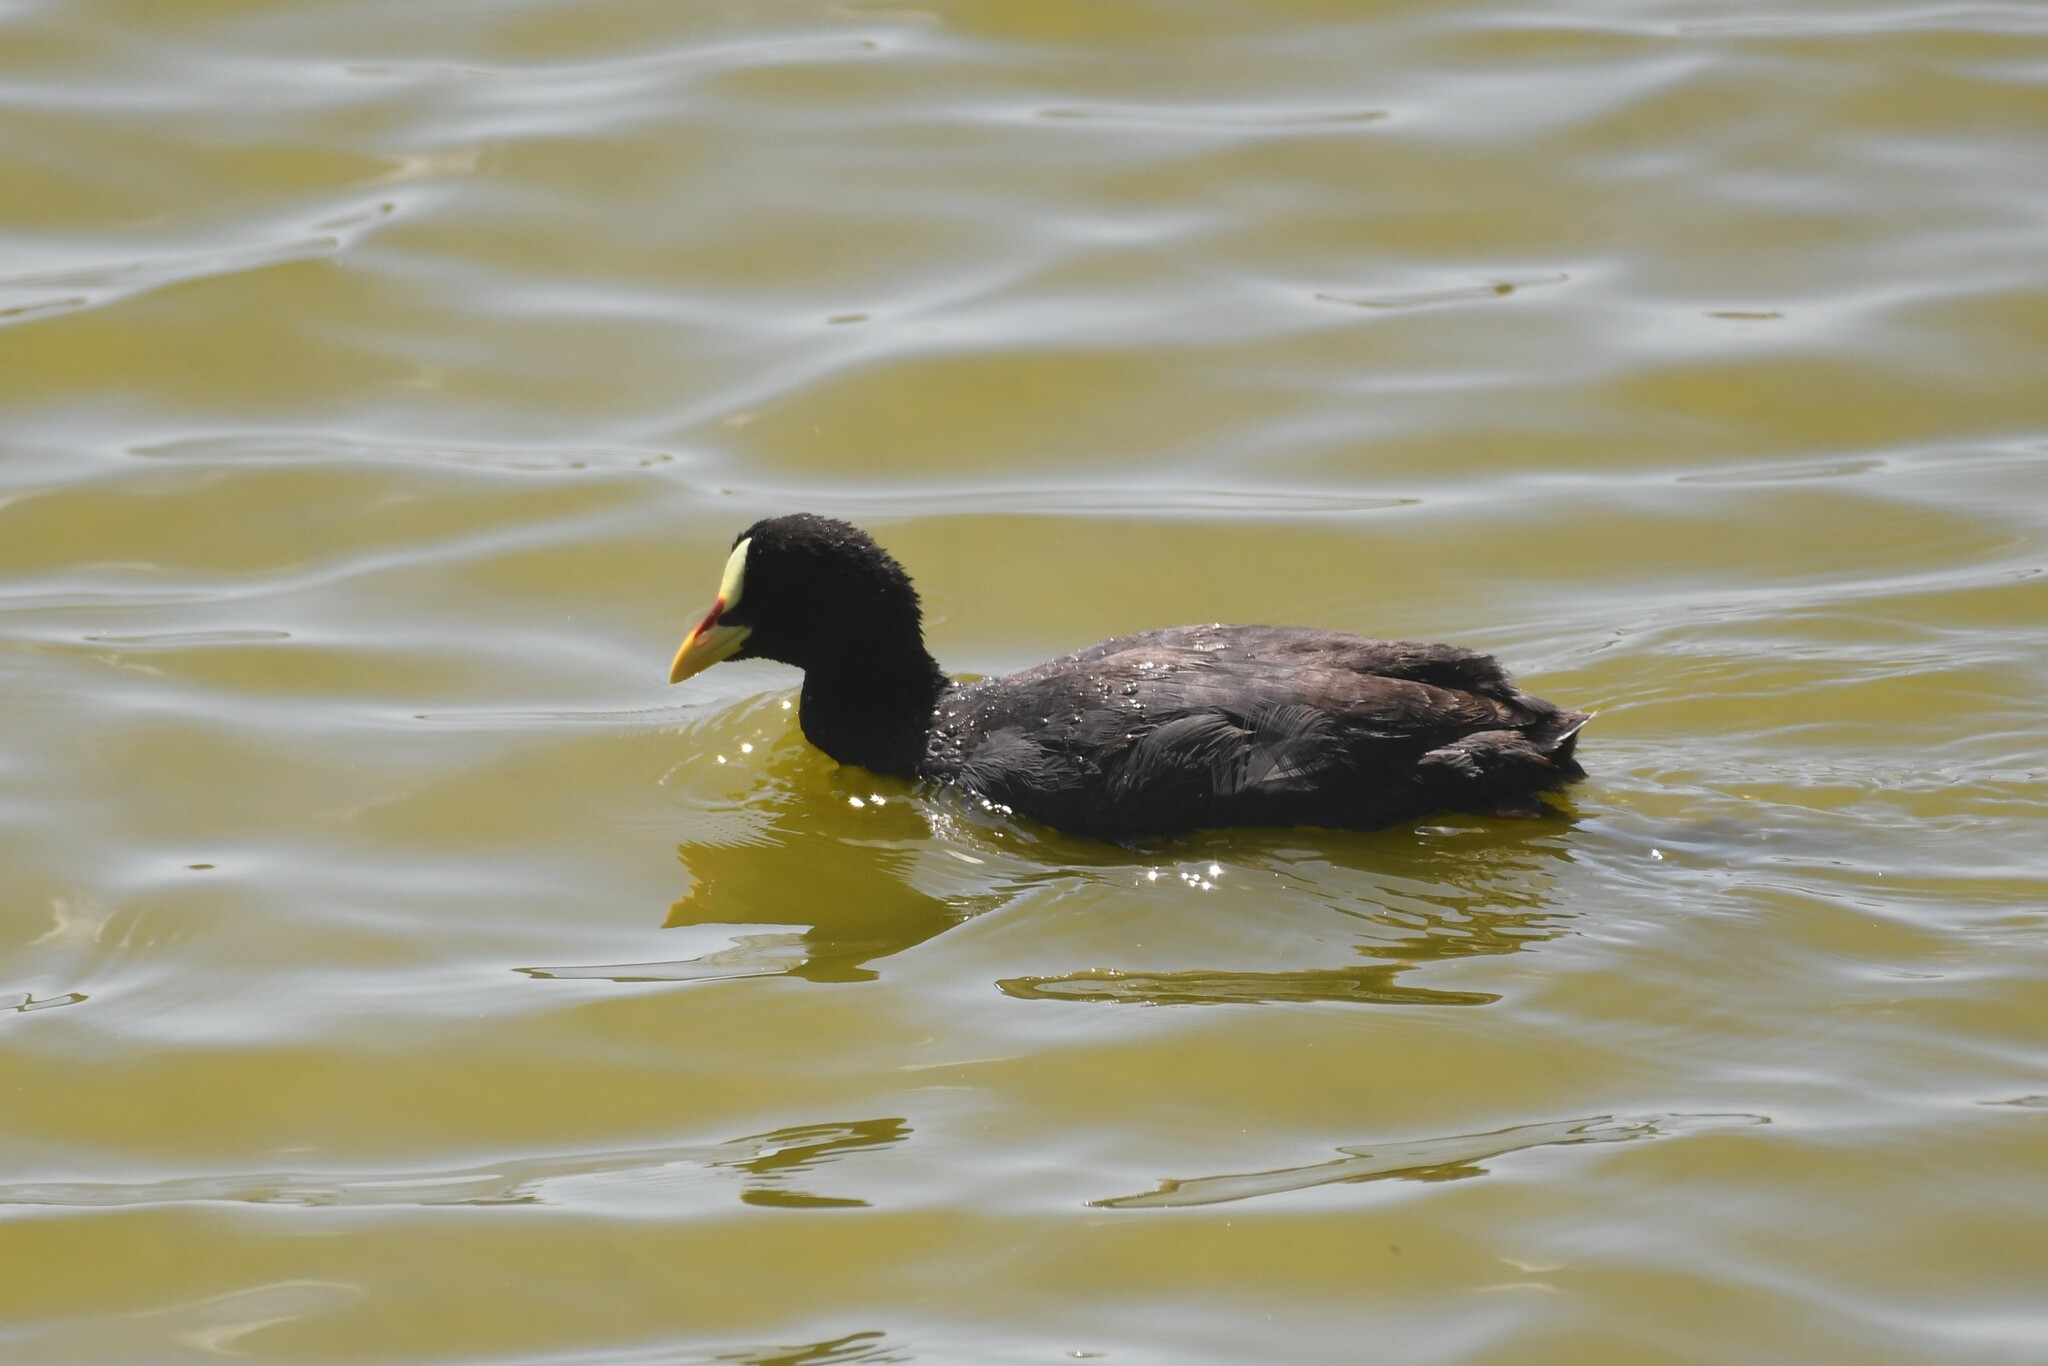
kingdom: Animalia
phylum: Chordata
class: Aves
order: Gruiformes
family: Rallidae
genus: Fulica
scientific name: Fulica armillata
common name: Red-gartered coot
